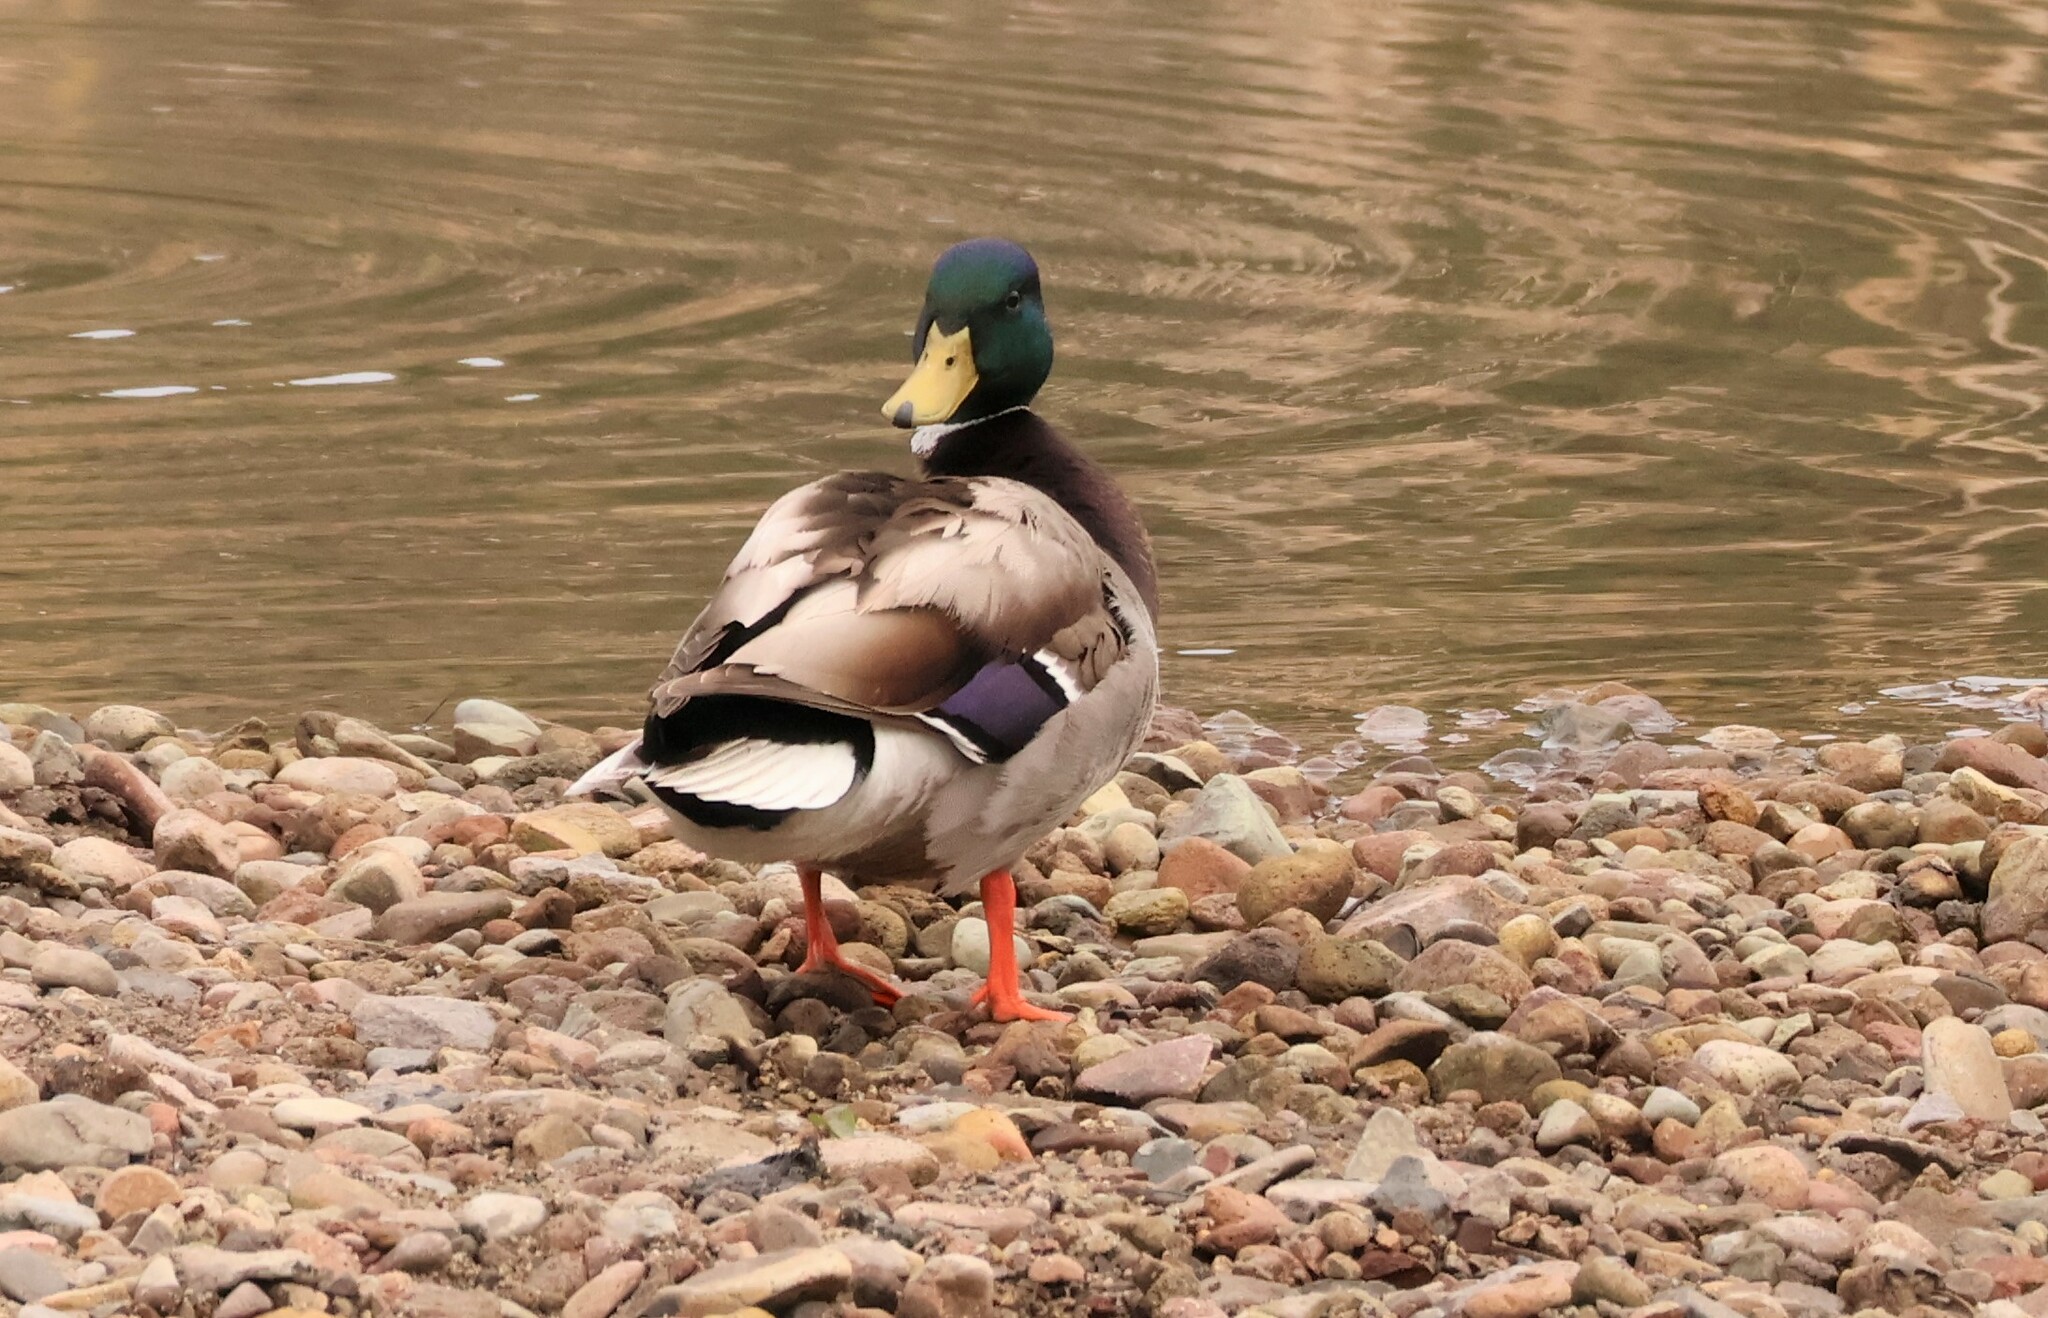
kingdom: Animalia
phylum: Chordata
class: Aves
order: Anseriformes
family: Anatidae
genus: Anas
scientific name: Anas platyrhynchos
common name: Mallard
